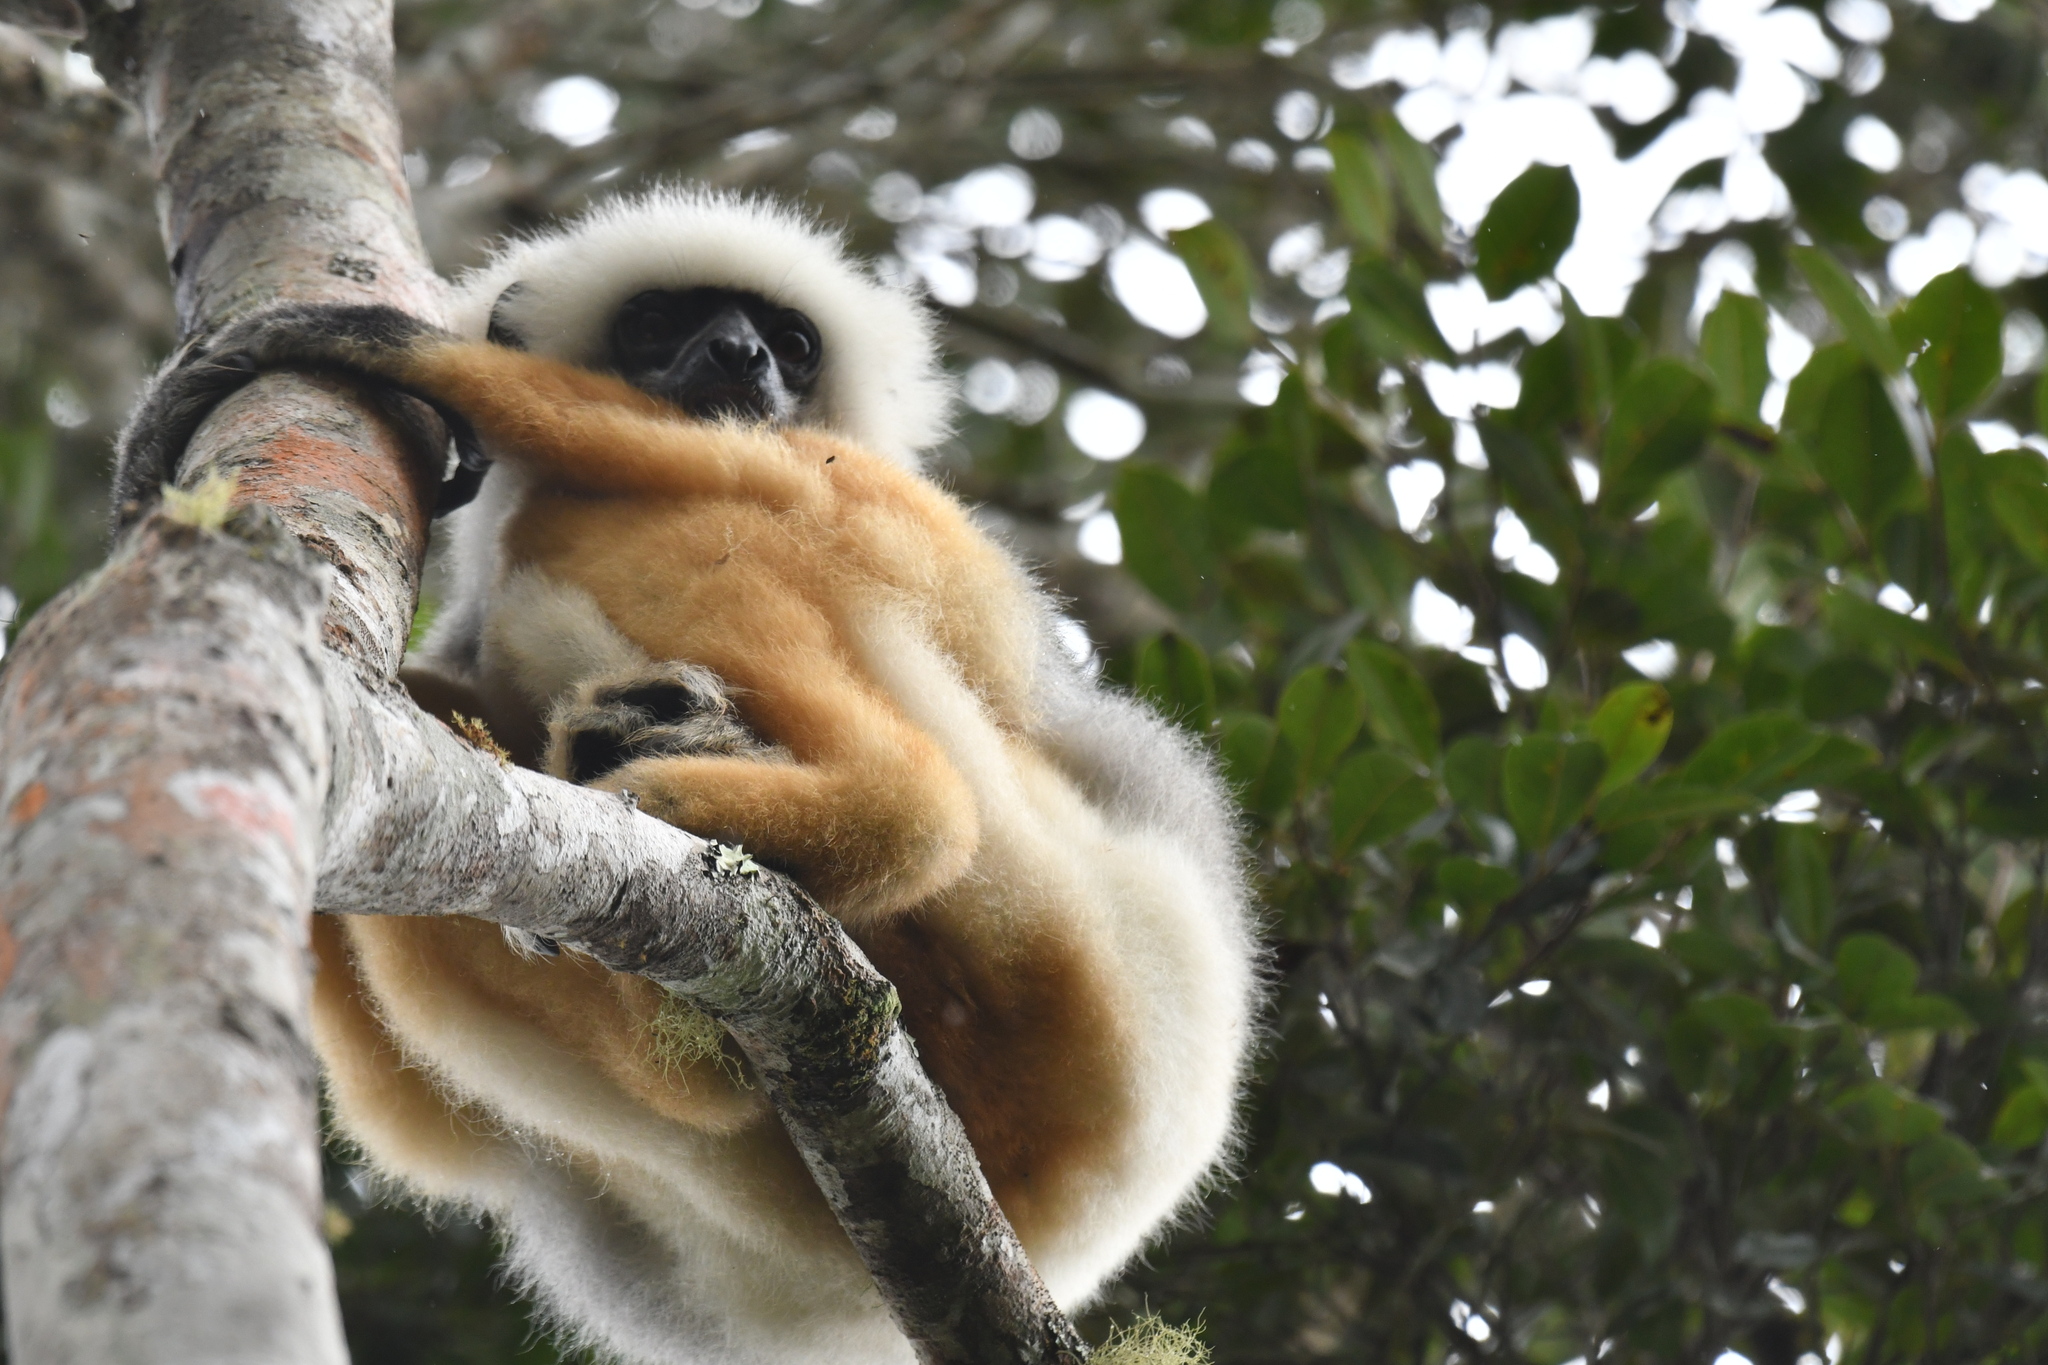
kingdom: Animalia
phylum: Chordata
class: Mammalia
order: Primates
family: Indriidae
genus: Propithecus
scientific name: Propithecus diadema
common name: Diademed sifaka
